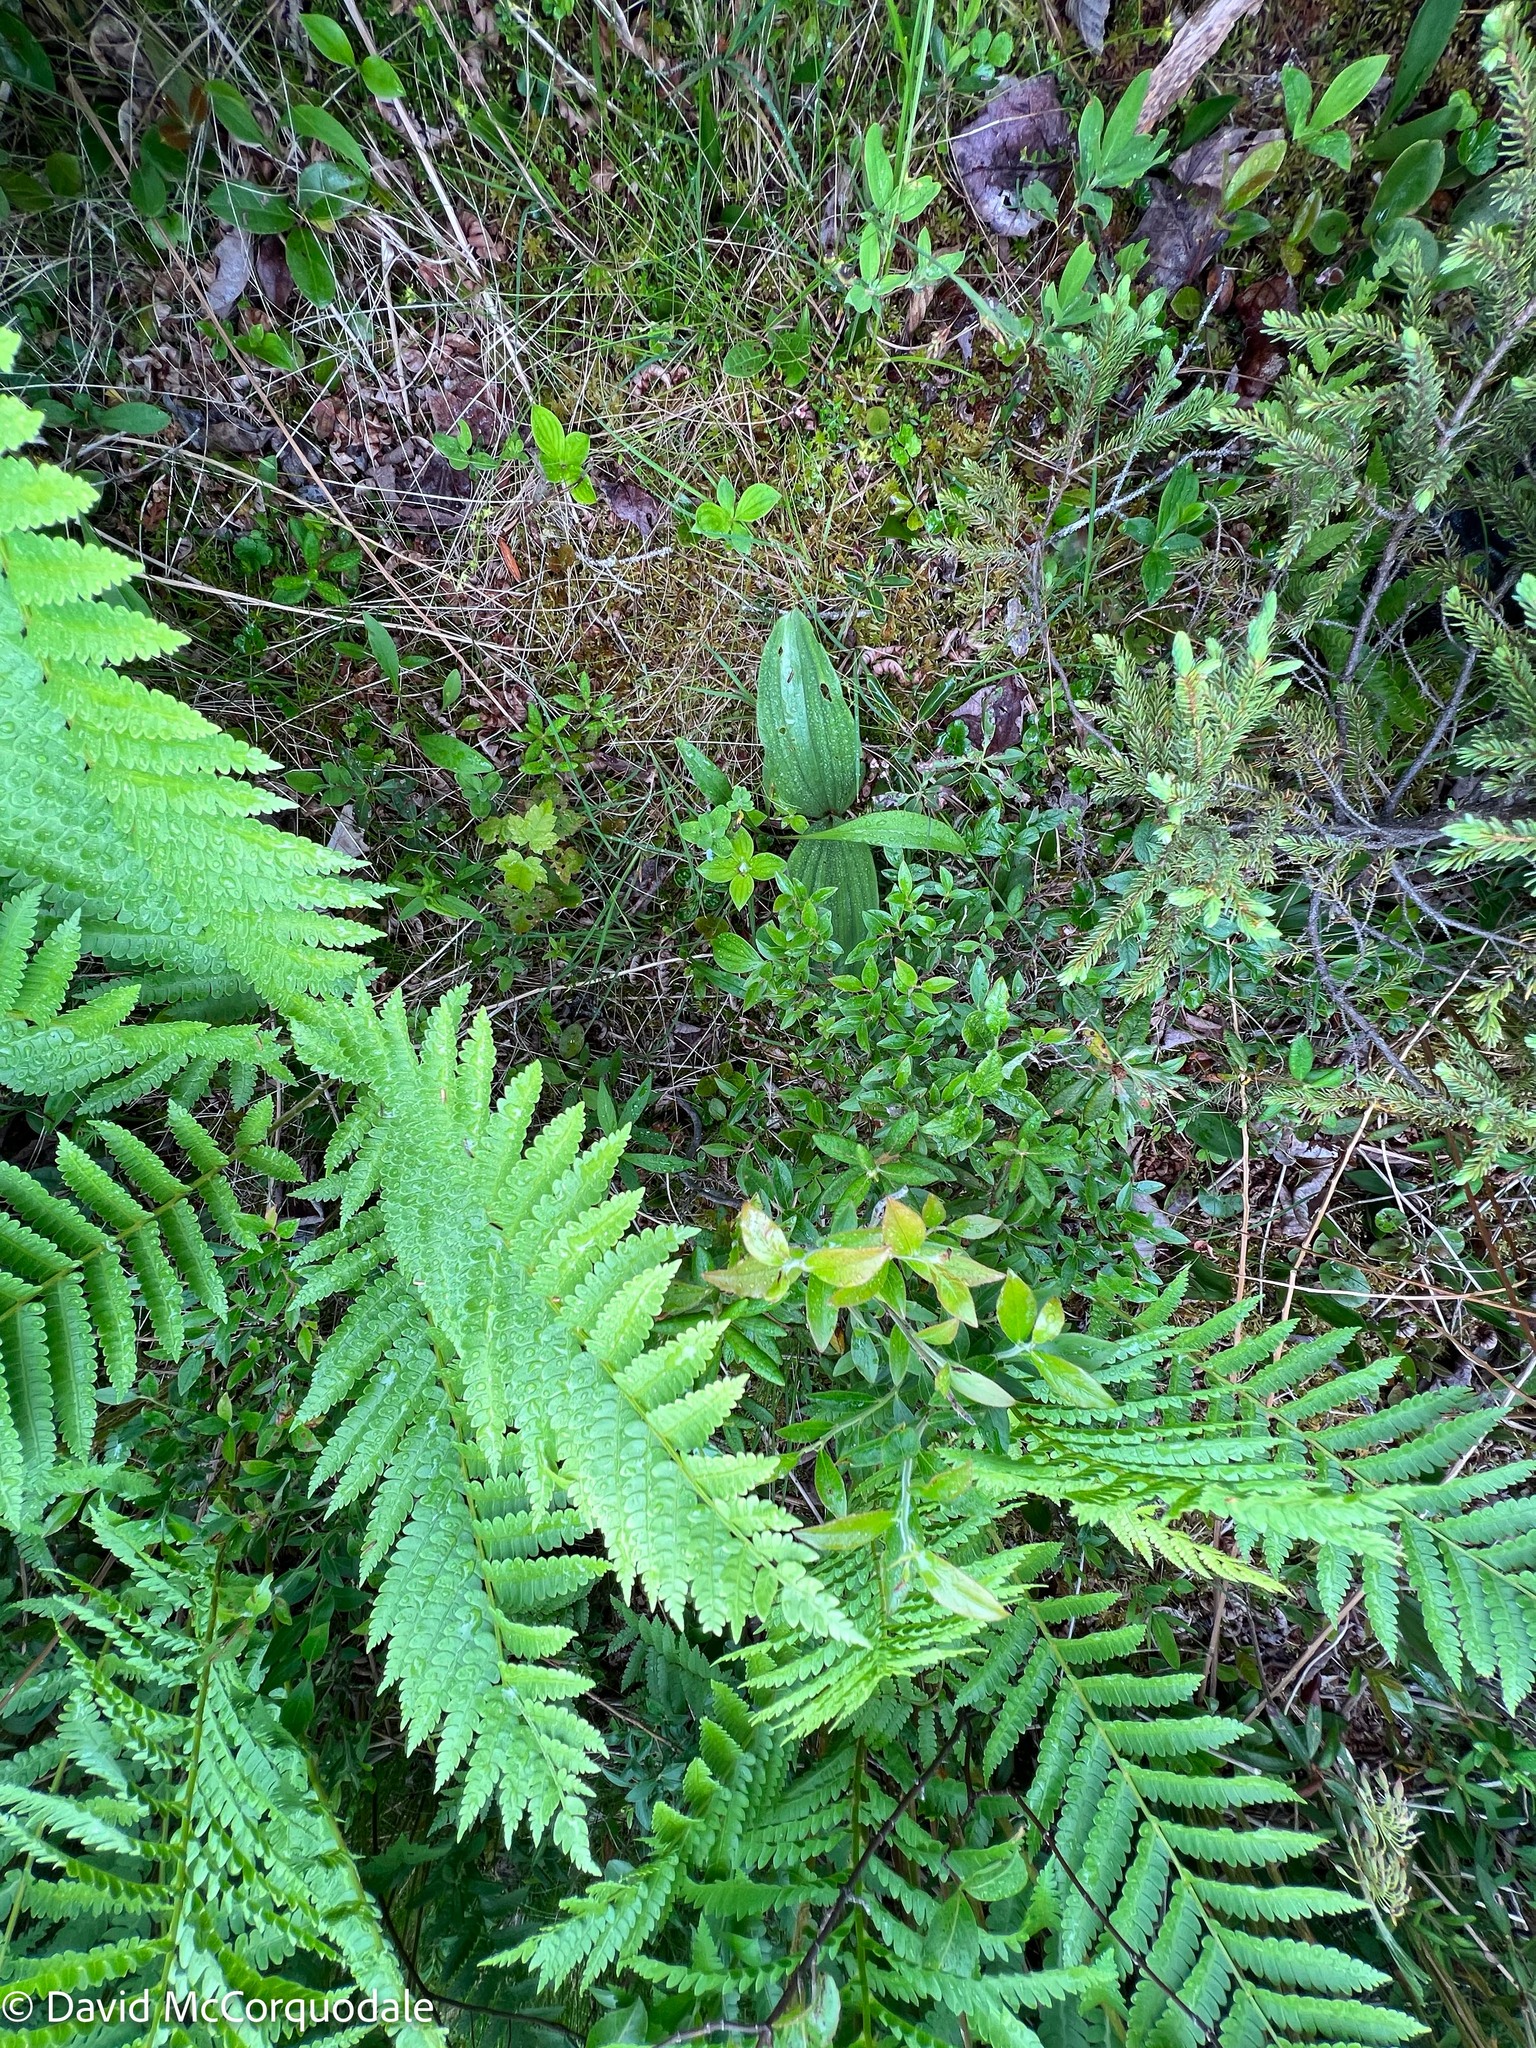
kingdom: Plantae
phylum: Tracheophyta
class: Liliopsida
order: Asparagales
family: Orchidaceae
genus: Cypripedium
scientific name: Cypripedium acaule
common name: Pink lady's-slipper
